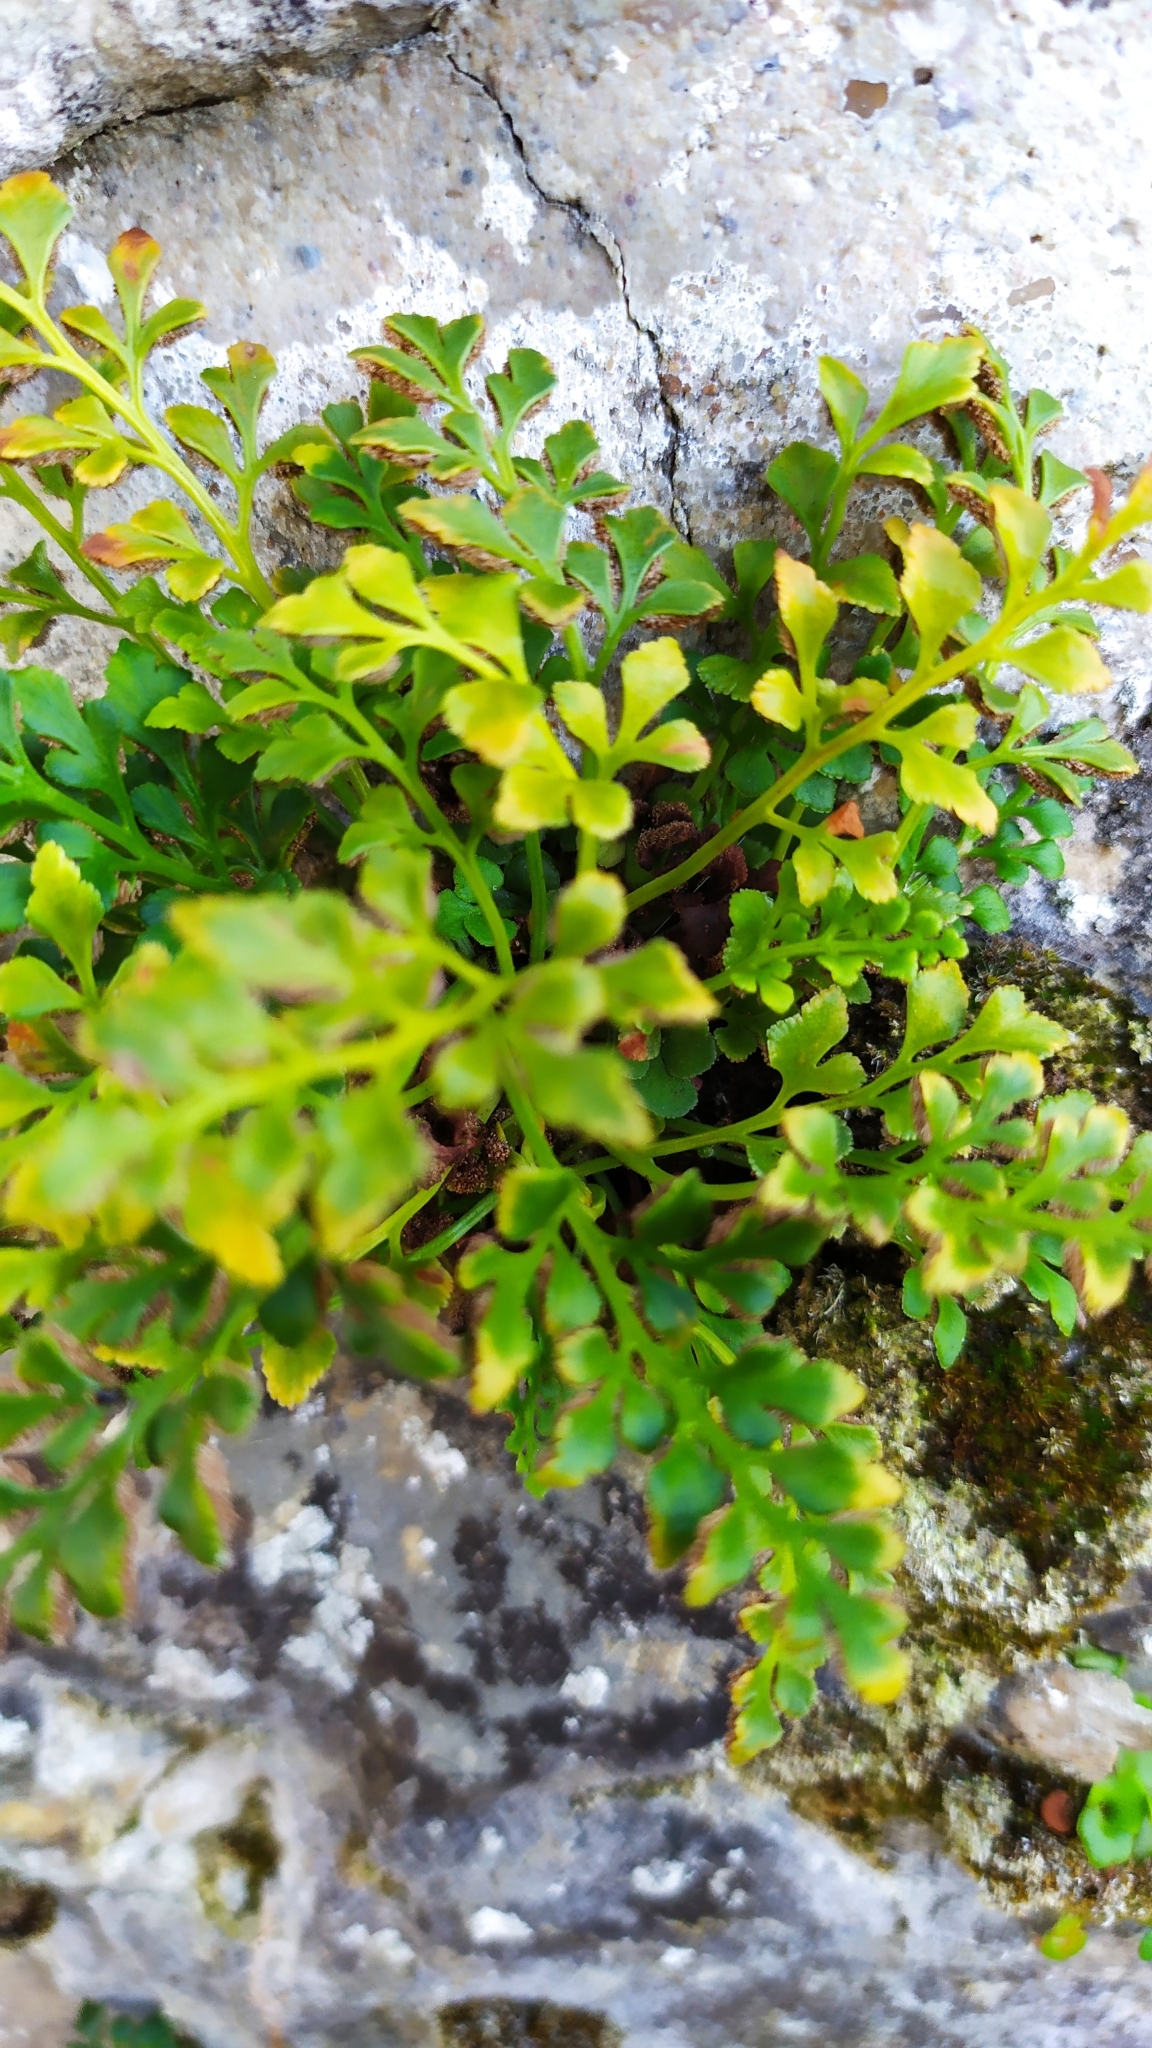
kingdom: Plantae
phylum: Tracheophyta
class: Polypodiopsida
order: Polypodiales
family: Aspleniaceae
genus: Asplenium
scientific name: Asplenium ruta-muraria
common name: Wall-rue
